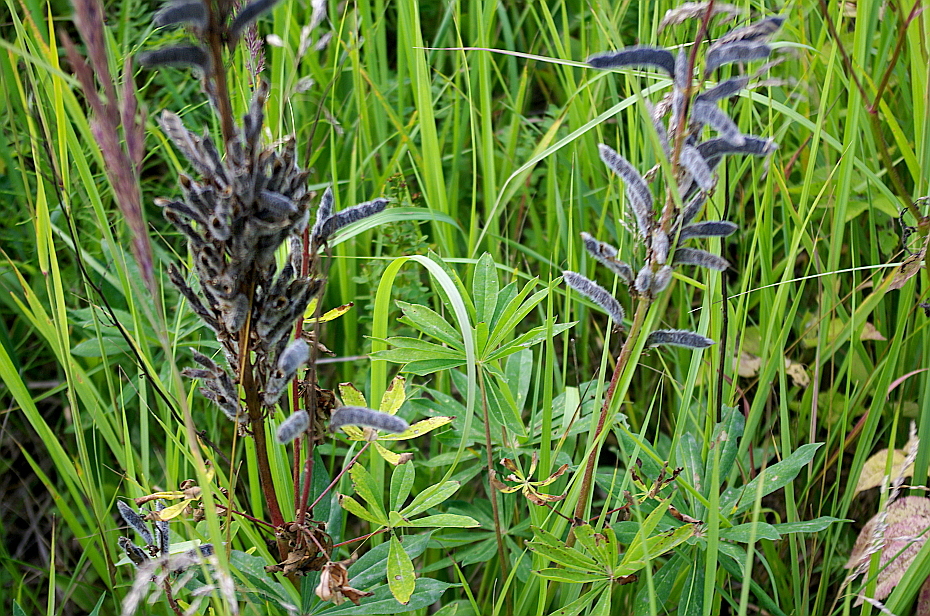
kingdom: Plantae
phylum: Tracheophyta
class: Magnoliopsida
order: Fabales
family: Fabaceae
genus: Lupinus
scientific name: Lupinus polyphyllus
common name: Garden lupin
